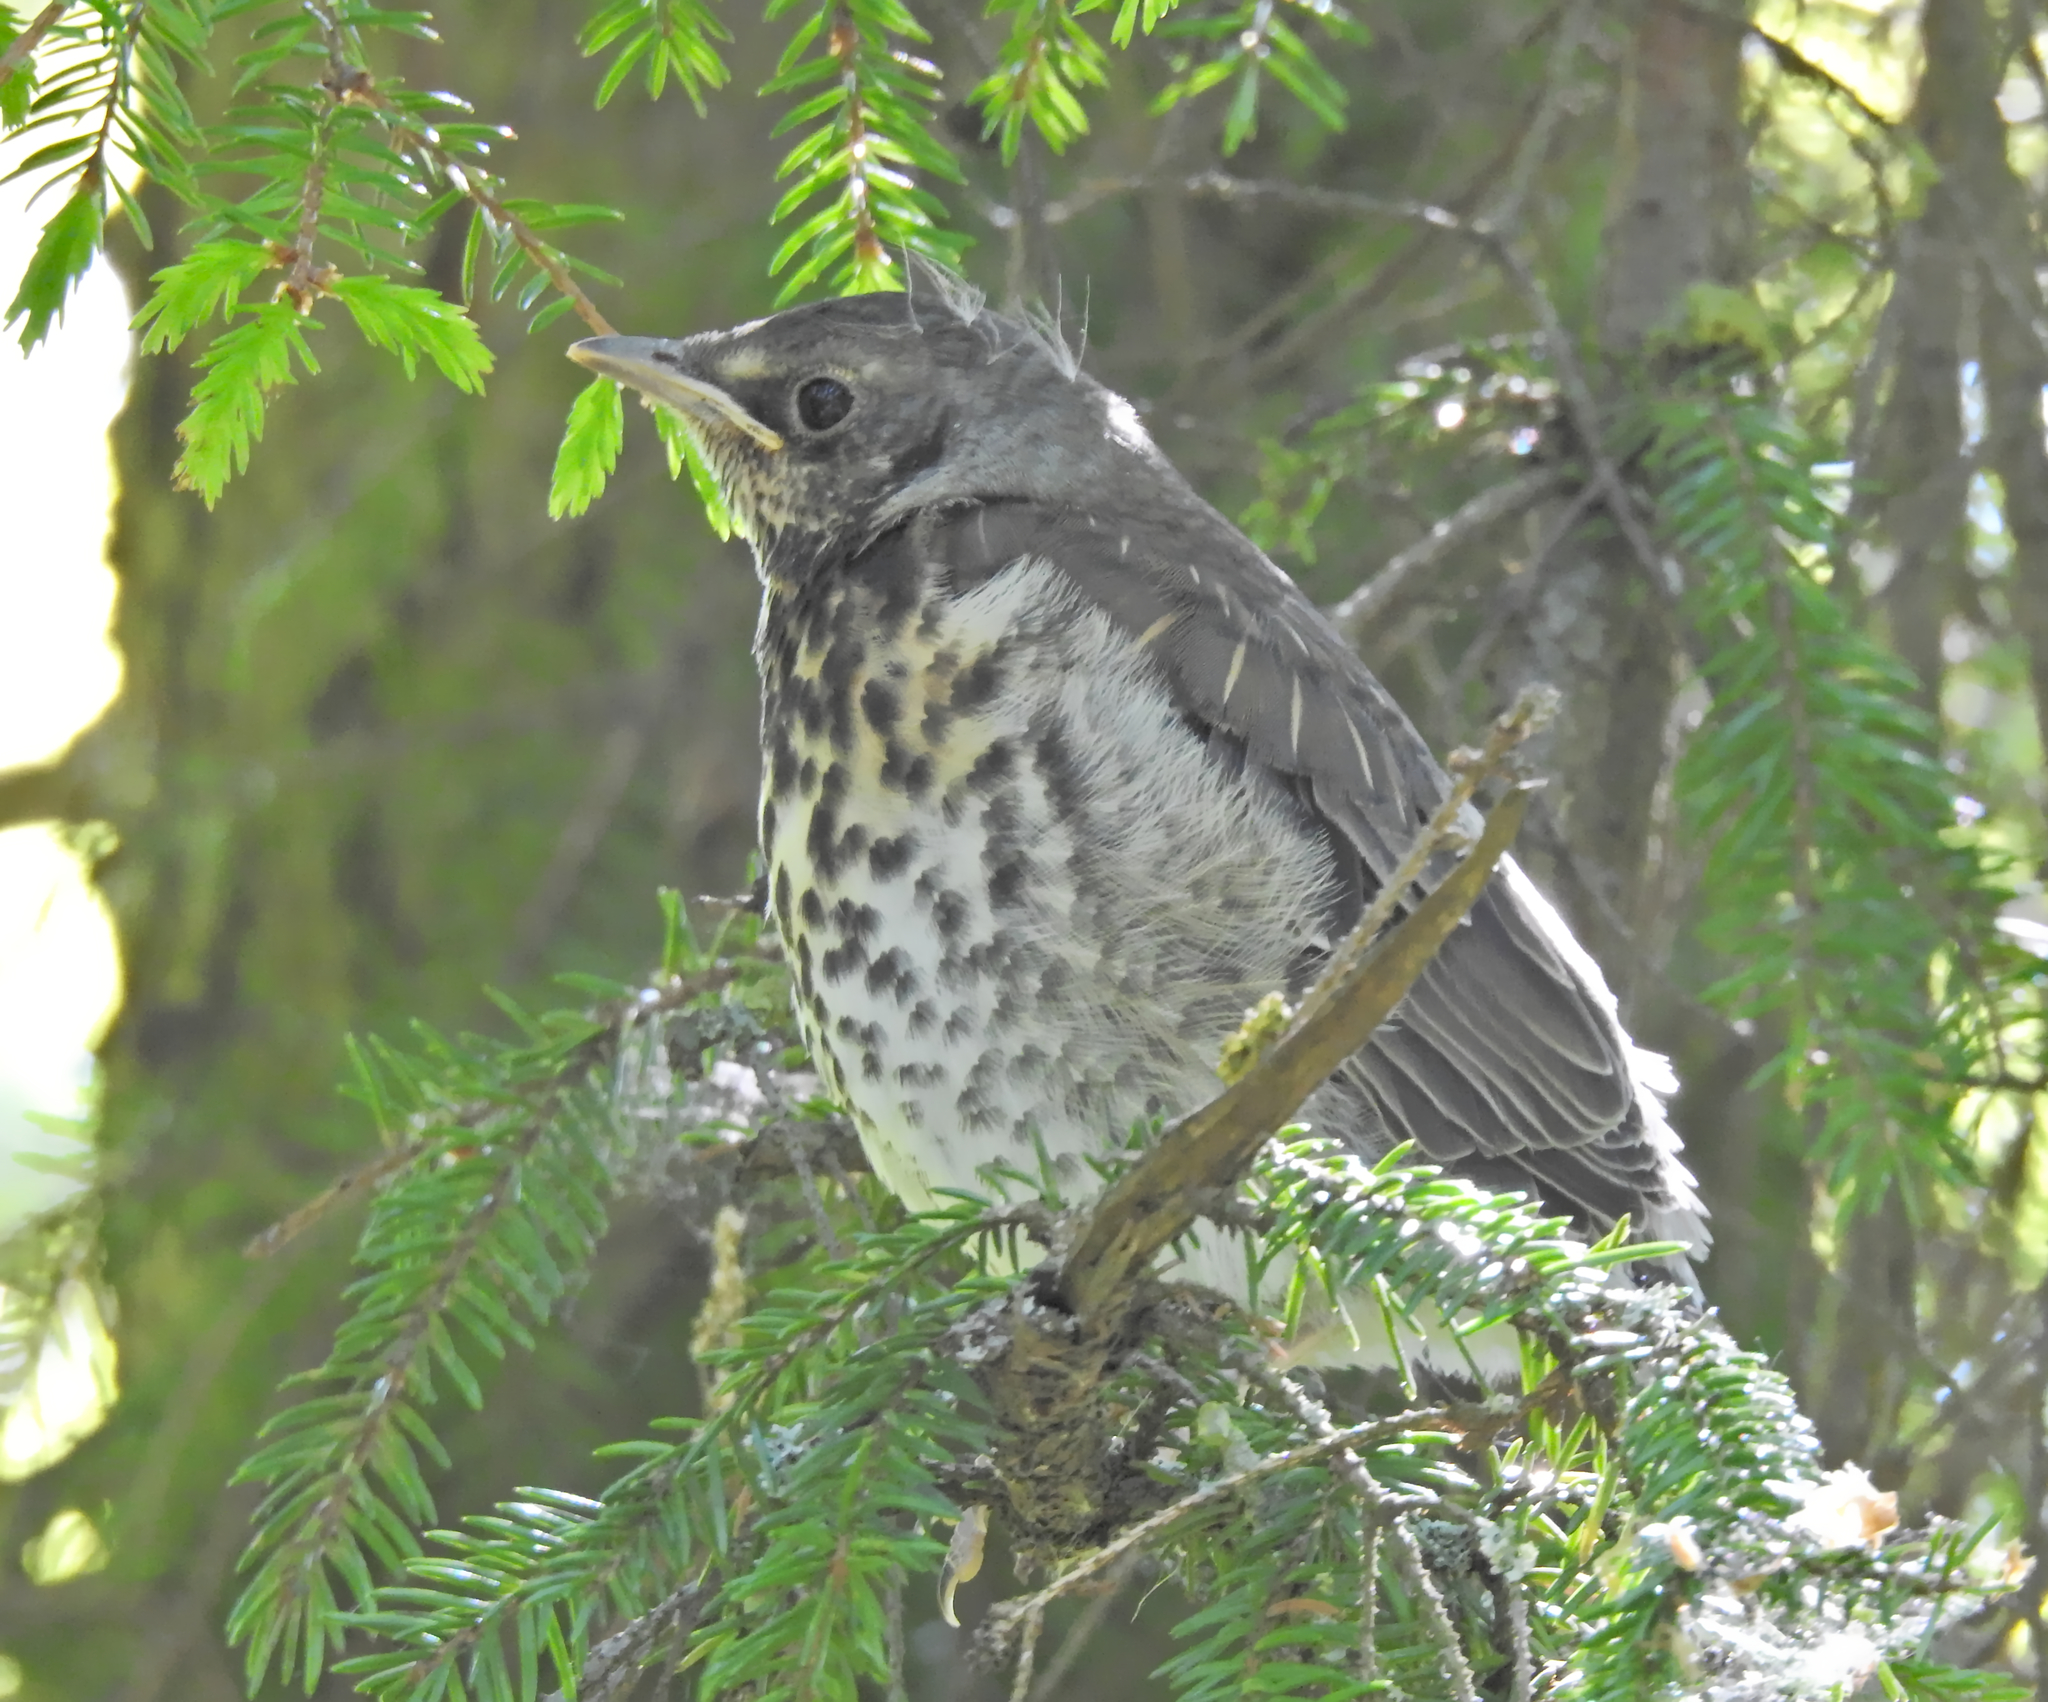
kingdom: Animalia
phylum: Chordata
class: Aves
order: Passeriformes
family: Turdidae
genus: Turdus
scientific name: Turdus pilaris
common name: Fieldfare
